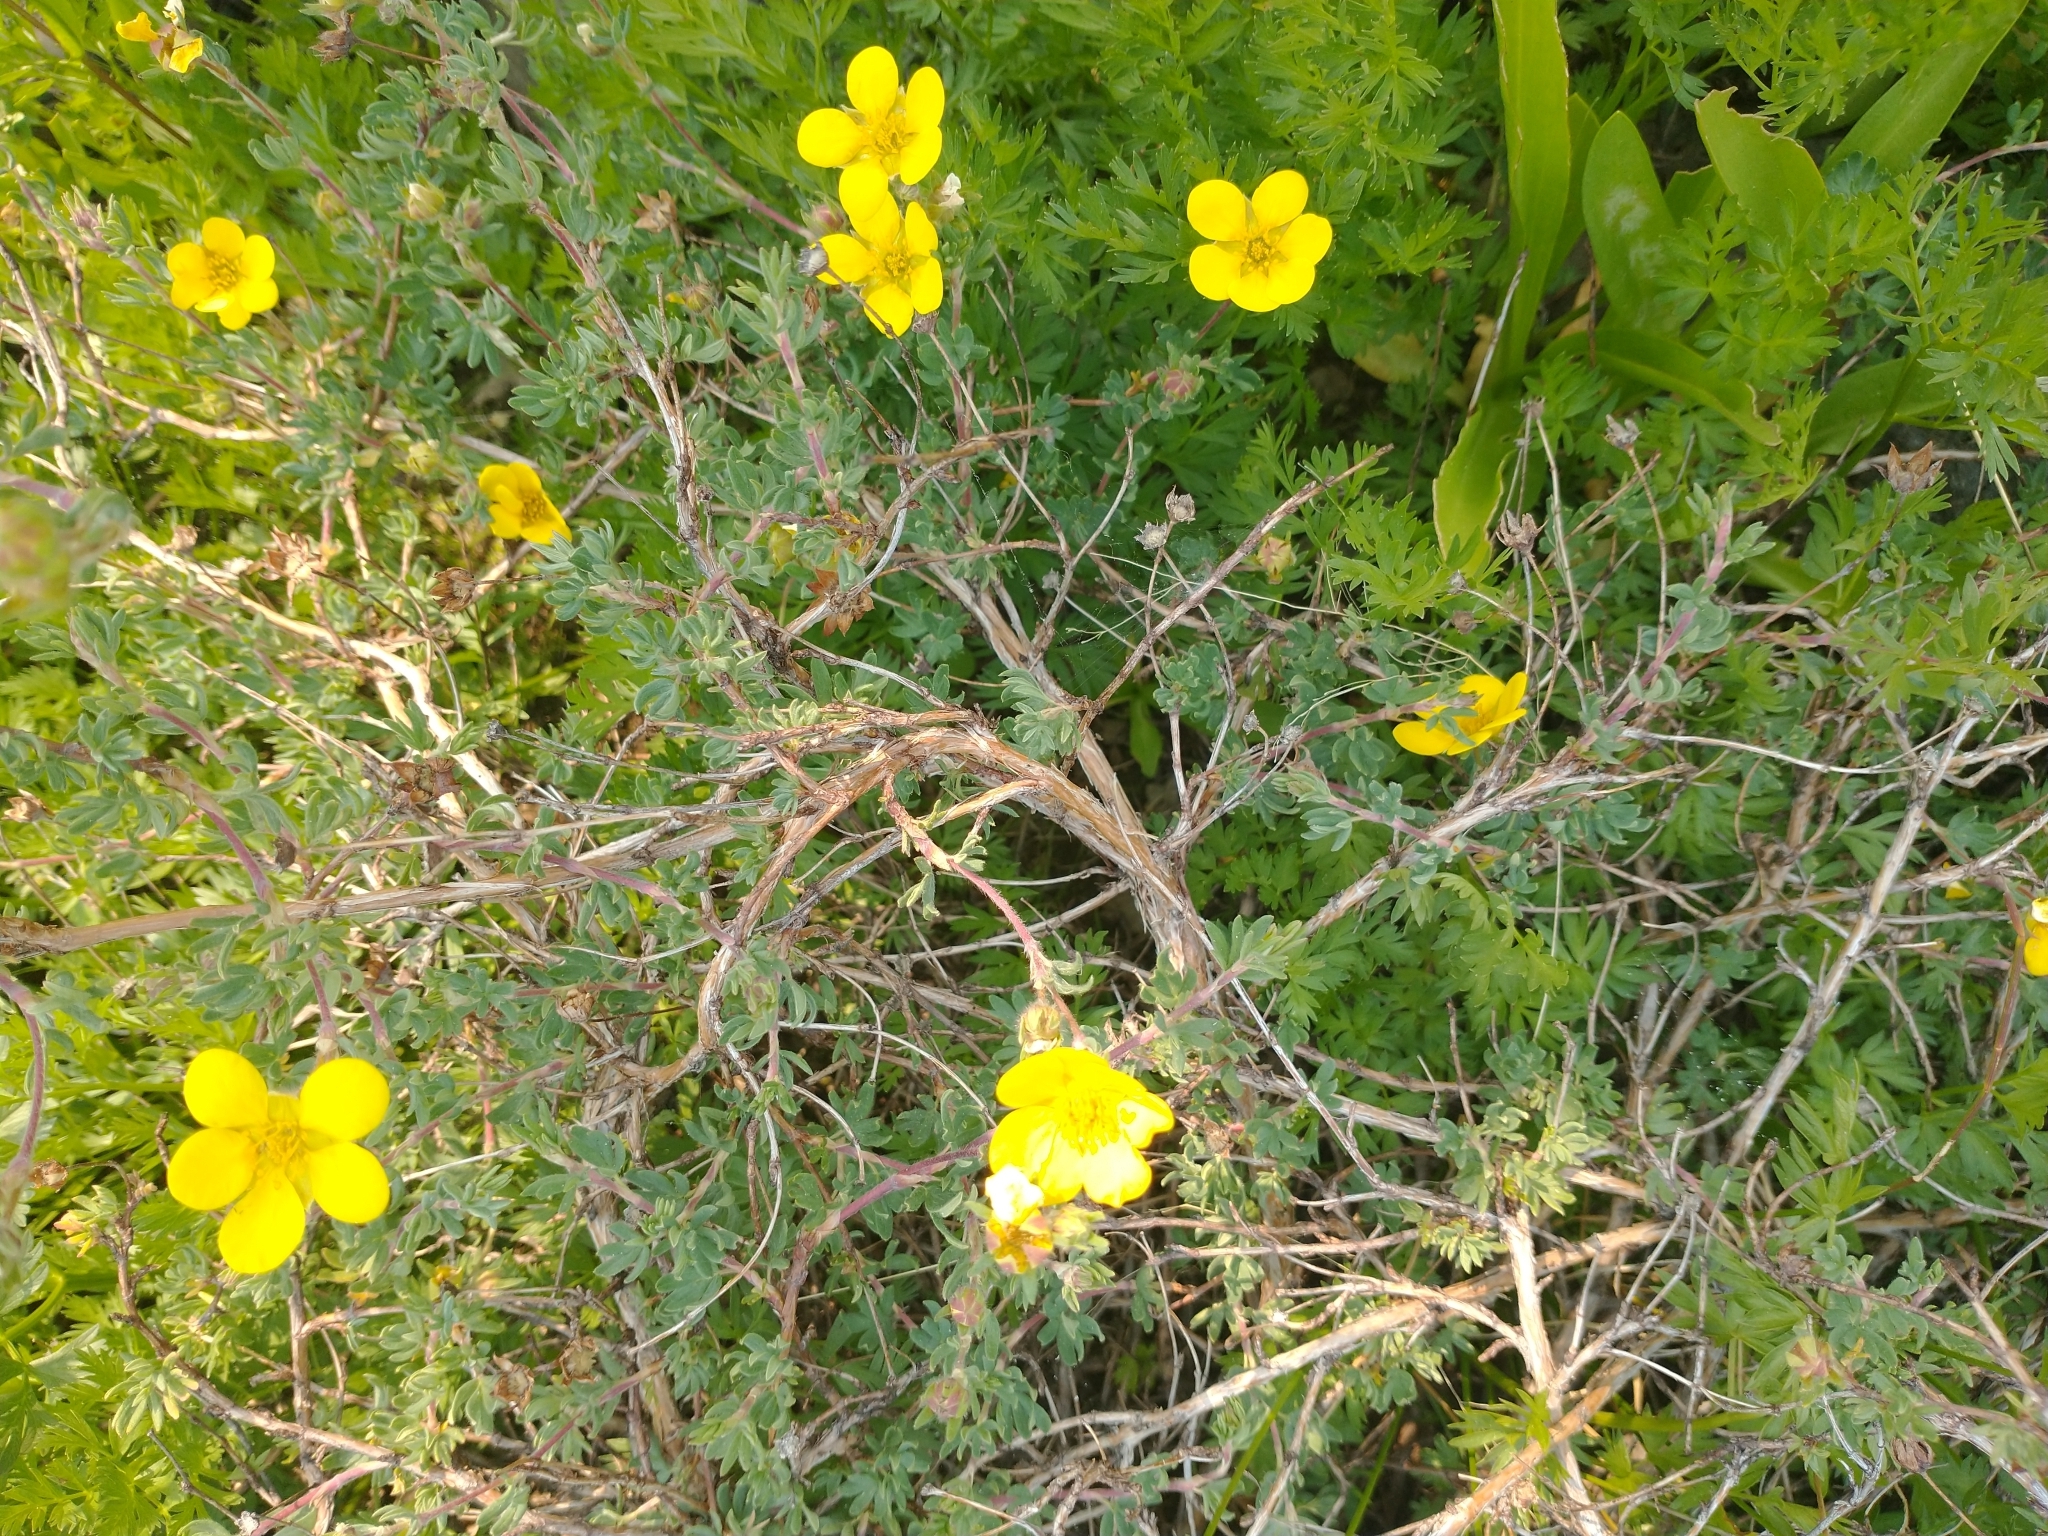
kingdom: Plantae
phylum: Tracheophyta
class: Magnoliopsida
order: Rosales
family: Rosaceae
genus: Dasiphora
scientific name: Dasiphora fruticosa
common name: Shrubby cinquefoil
